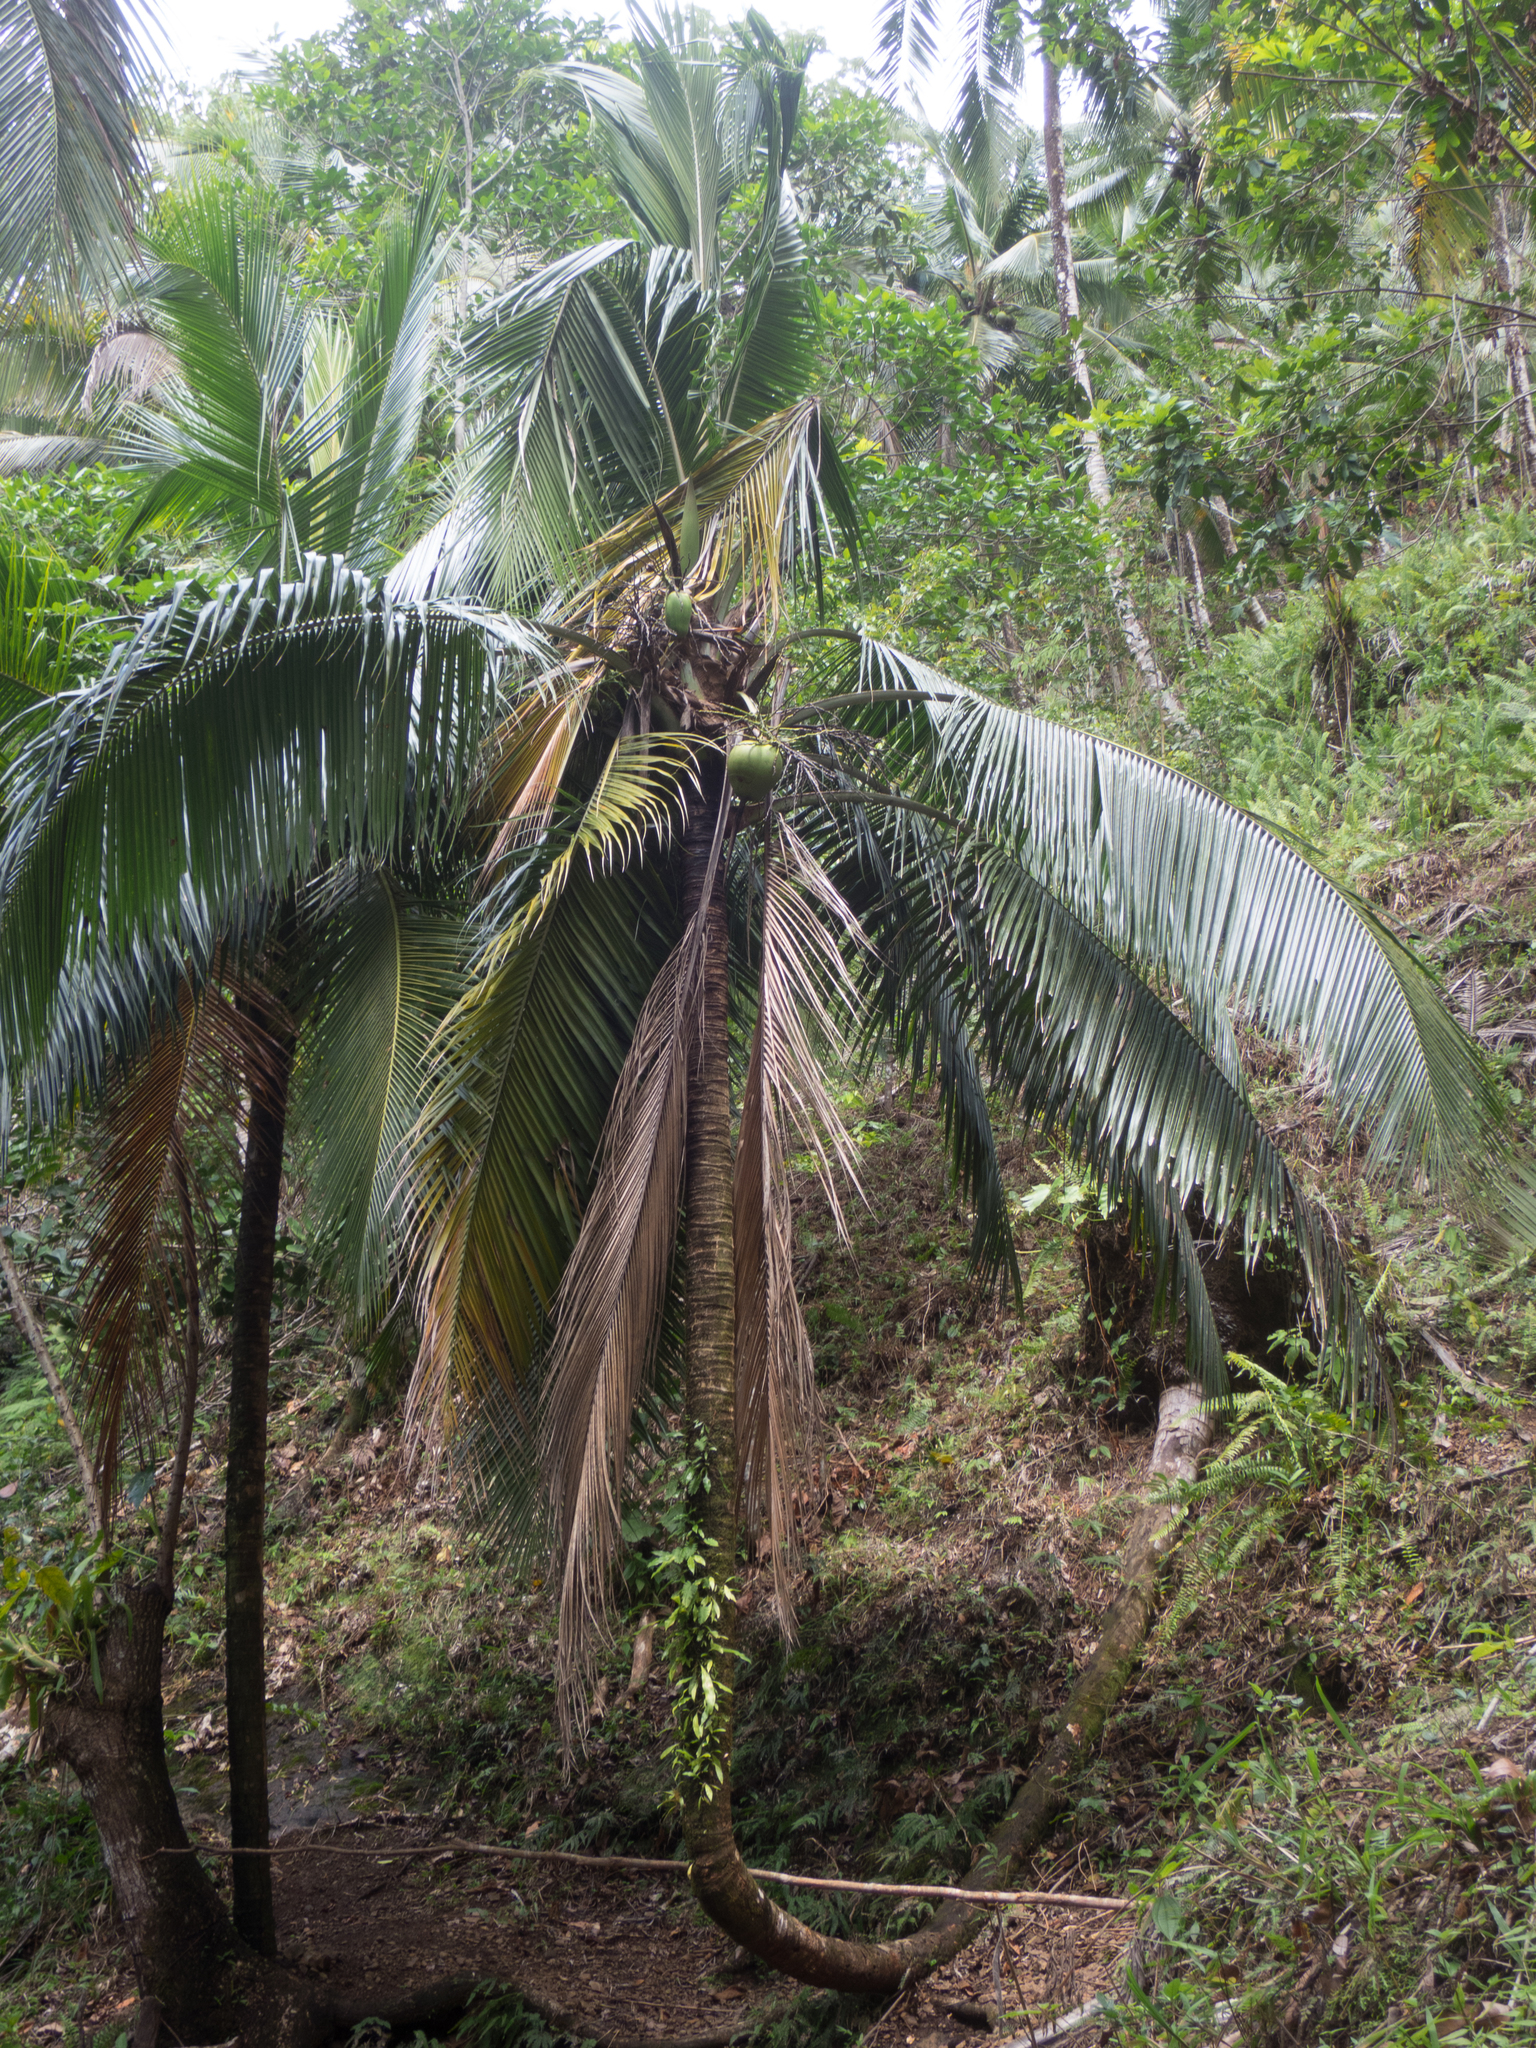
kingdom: Plantae
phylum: Tracheophyta
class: Liliopsida
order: Arecales
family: Arecaceae
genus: Cocos
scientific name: Cocos nucifera
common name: Coconut palm
